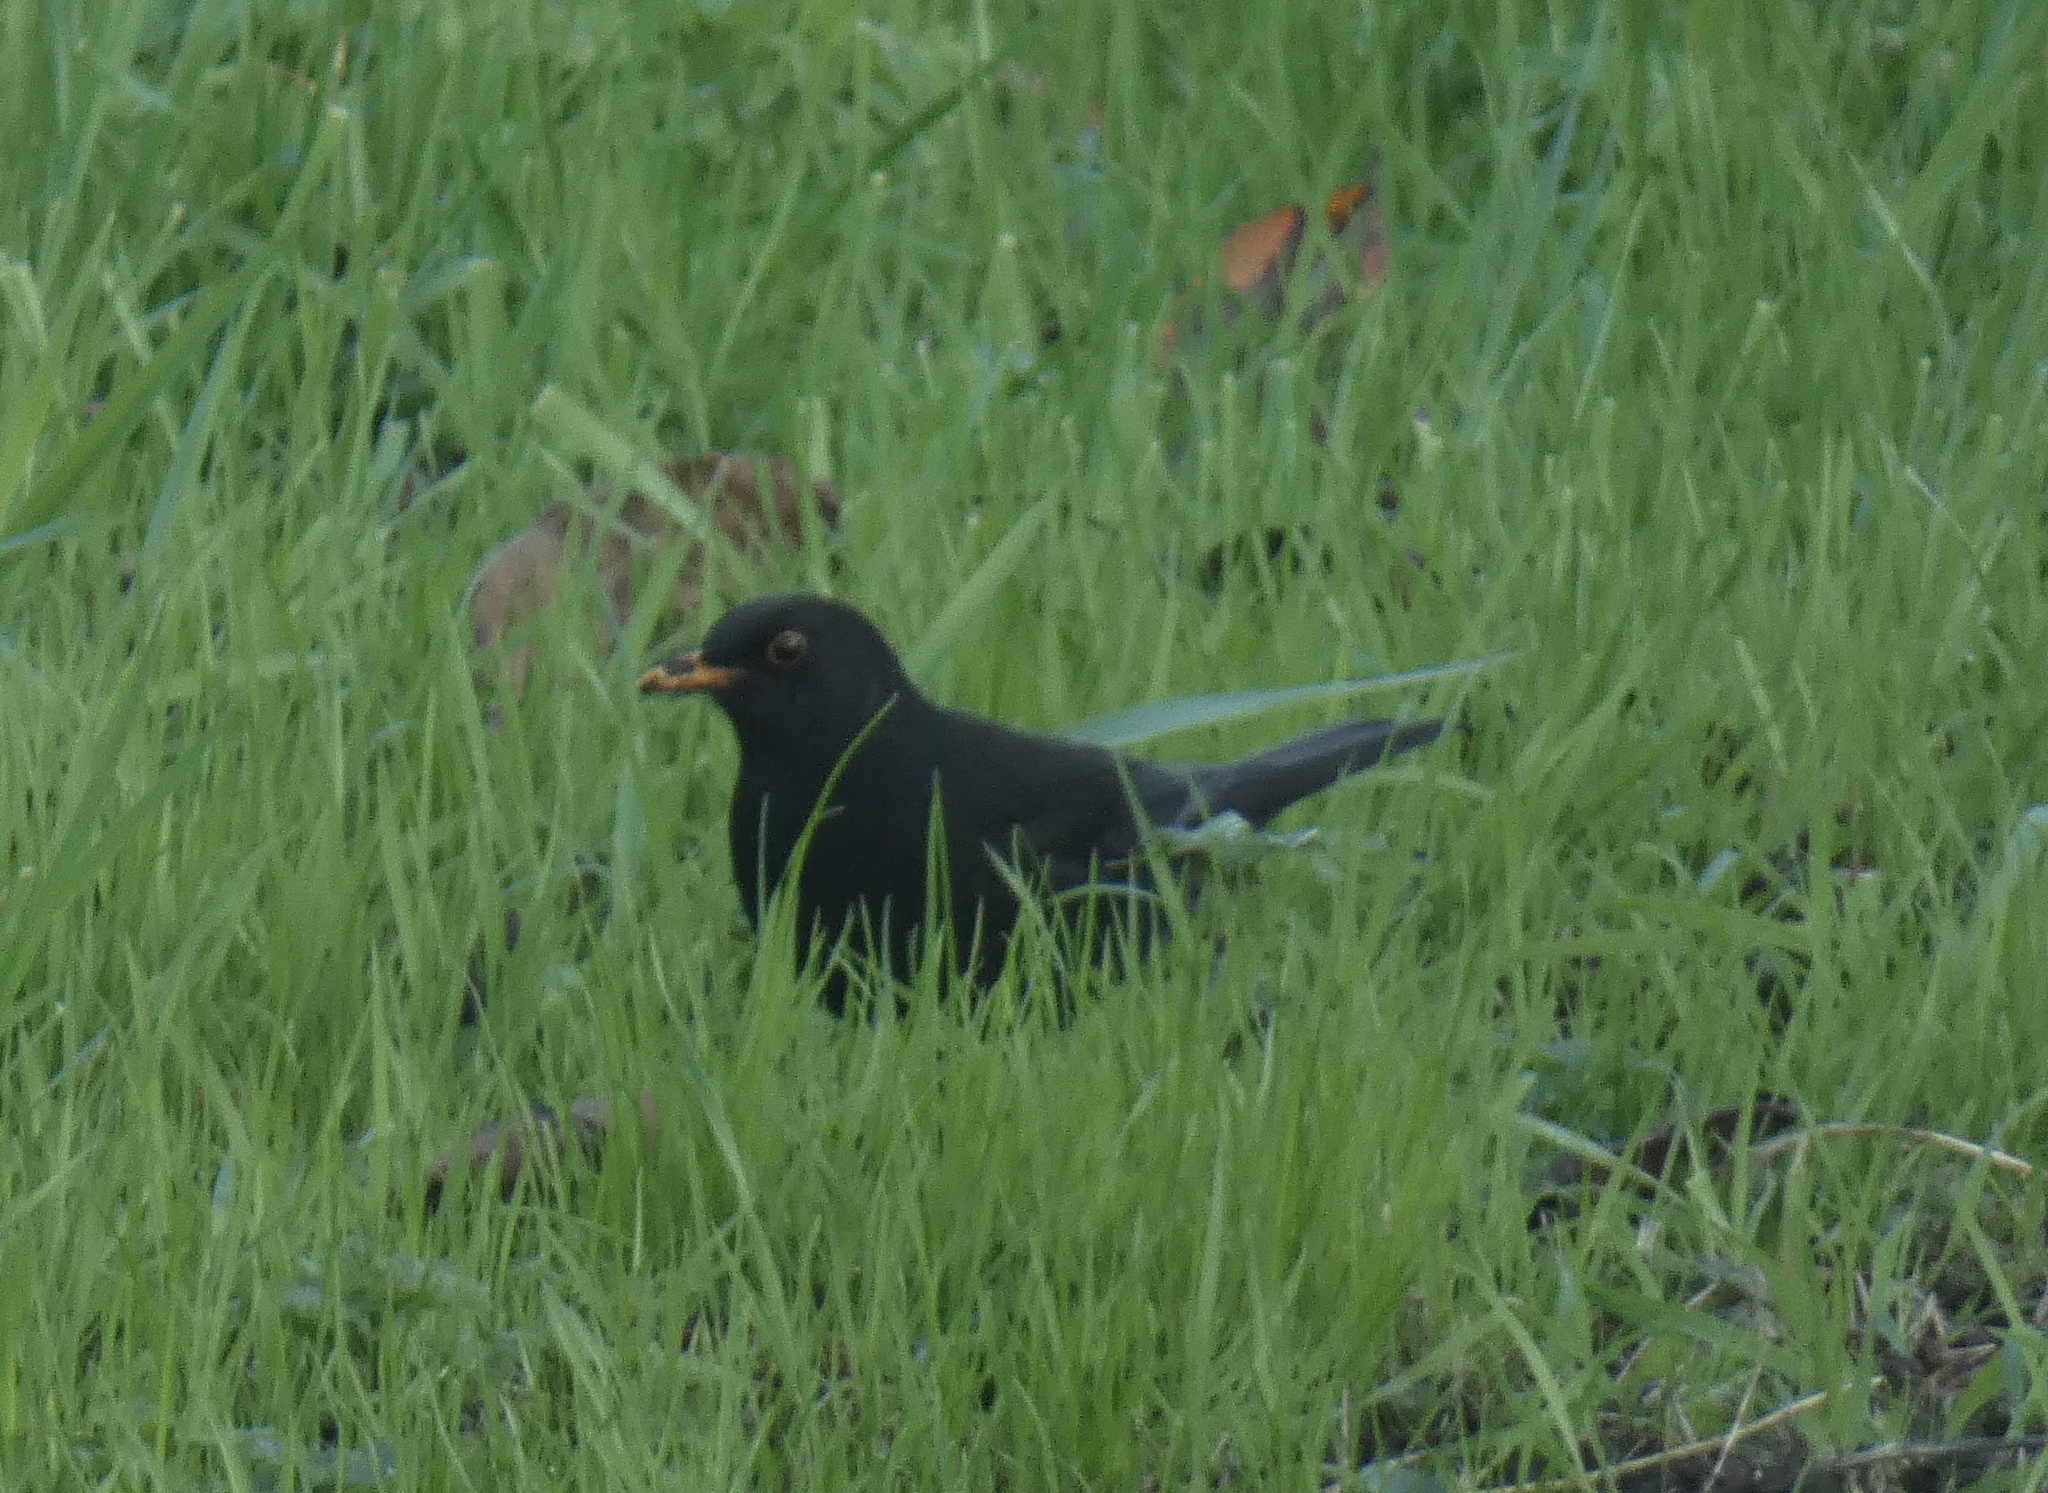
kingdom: Animalia
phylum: Chordata
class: Aves
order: Passeriformes
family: Turdidae
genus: Turdus
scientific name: Turdus merula
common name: Common blackbird
